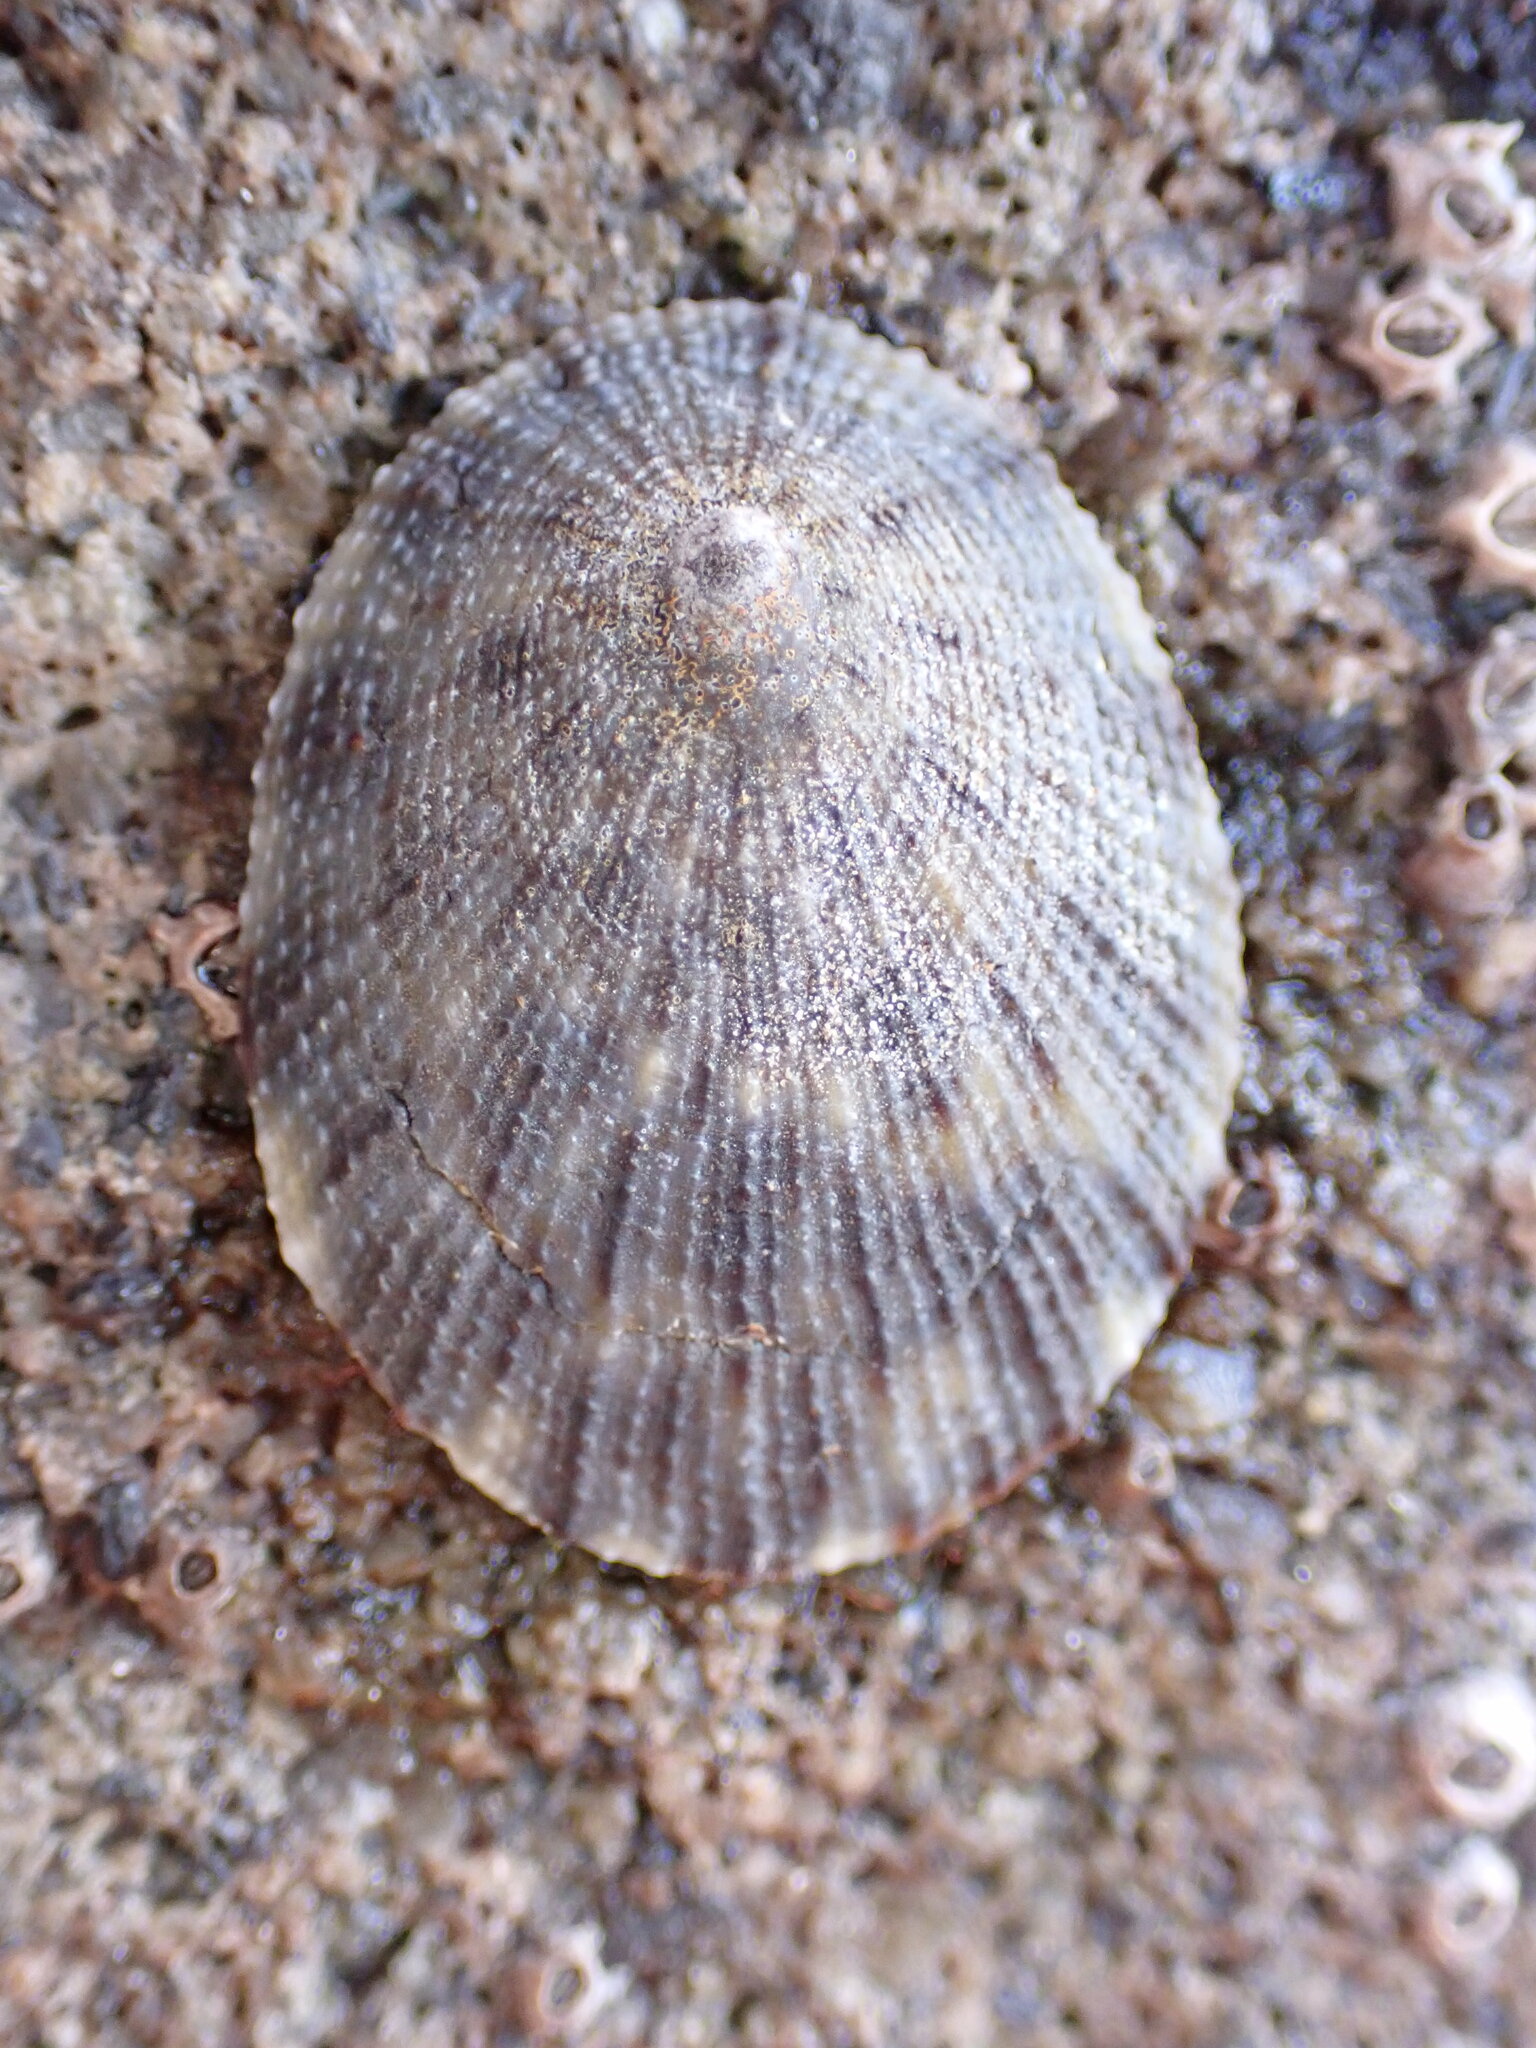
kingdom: Animalia
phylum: Mollusca
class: Gastropoda
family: Nacellidae
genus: Cellana
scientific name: Cellana radians
